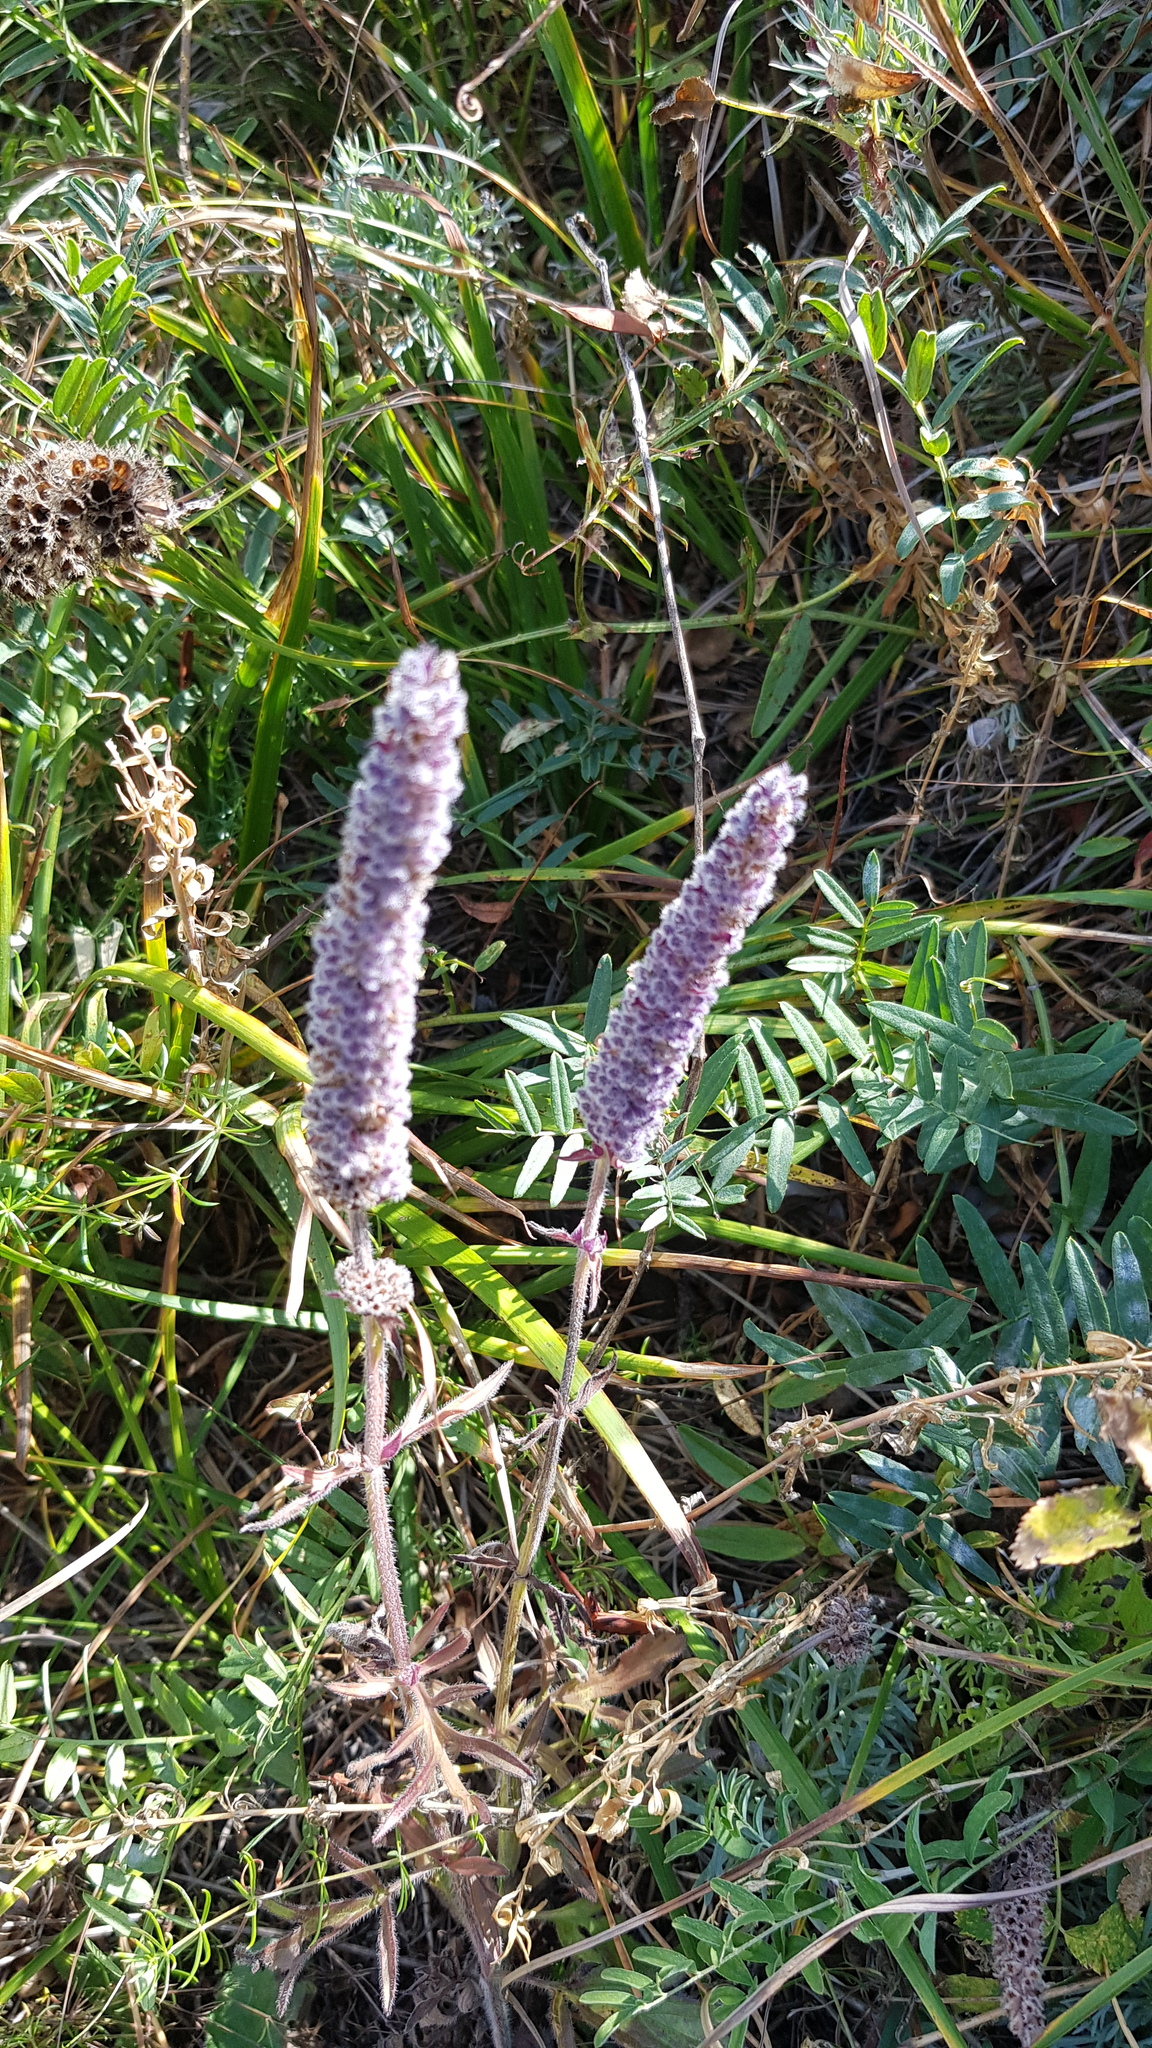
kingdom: Plantae
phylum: Tracheophyta
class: Magnoliopsida
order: Lamiales
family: Lamiaceae
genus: Nepeta
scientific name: Nepeta multifida
